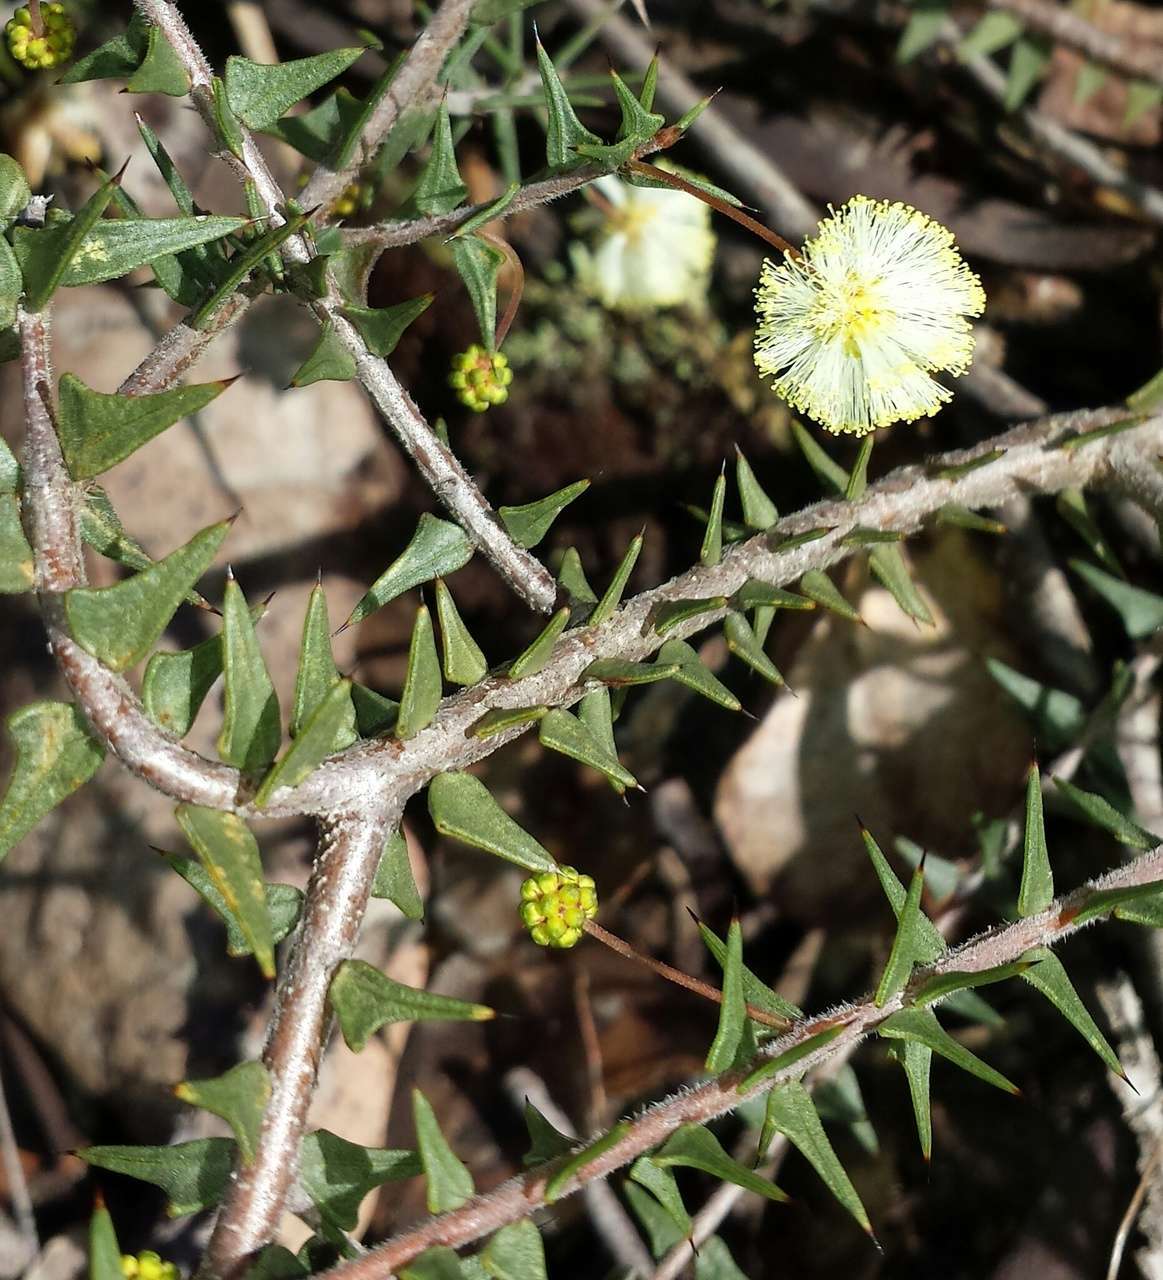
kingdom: Plantae
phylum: Tracheophyta
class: Magnoliopsida
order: Fabales
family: Fabaceae
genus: Acacia
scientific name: Acacia gunnii
